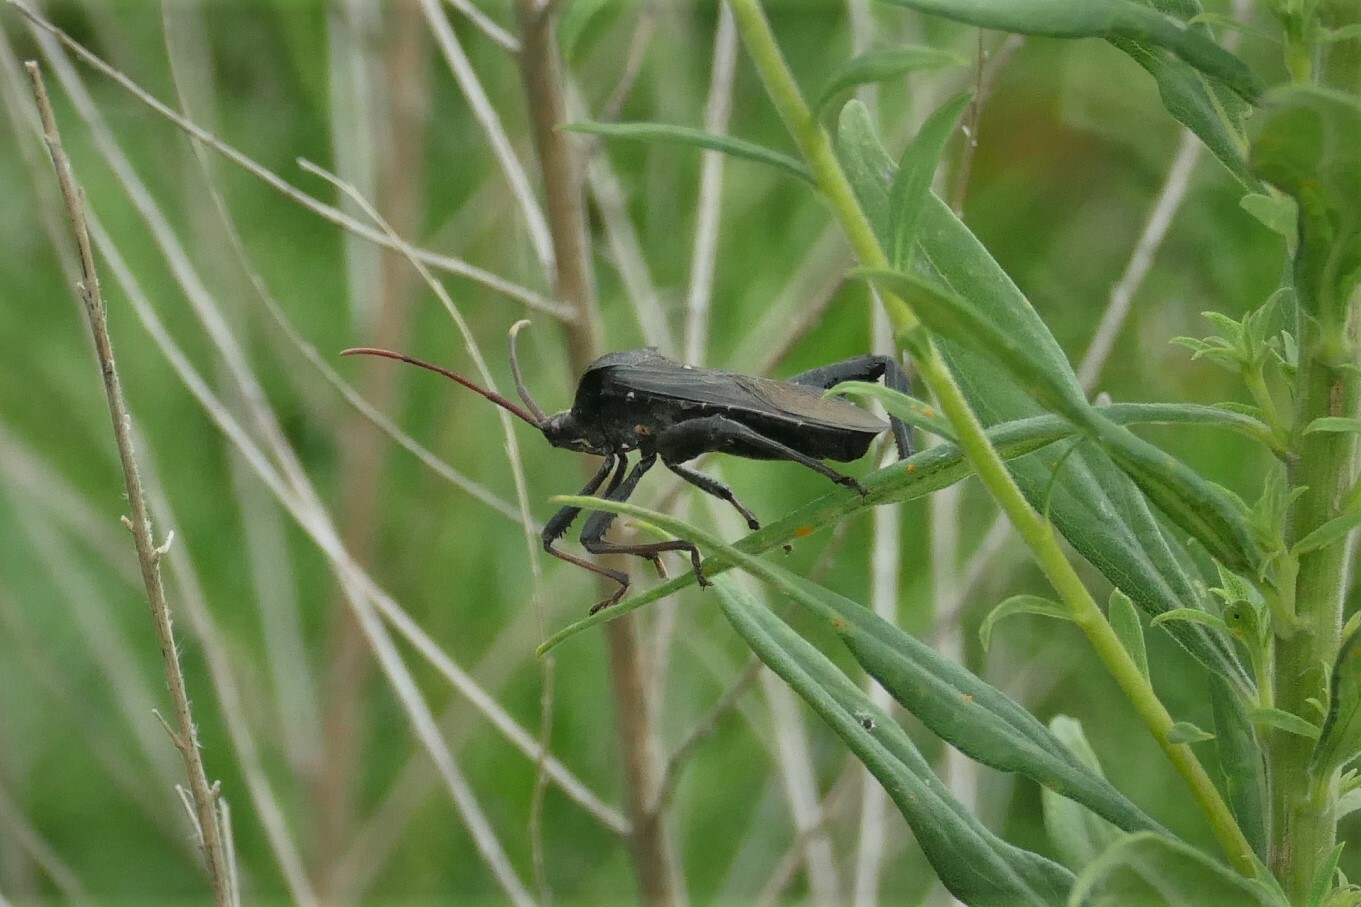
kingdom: Animalia
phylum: Arthropoda
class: Insecta
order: Hemiptera
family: Coreidae
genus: Acanthocephala
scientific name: Acanthocephala femorata
